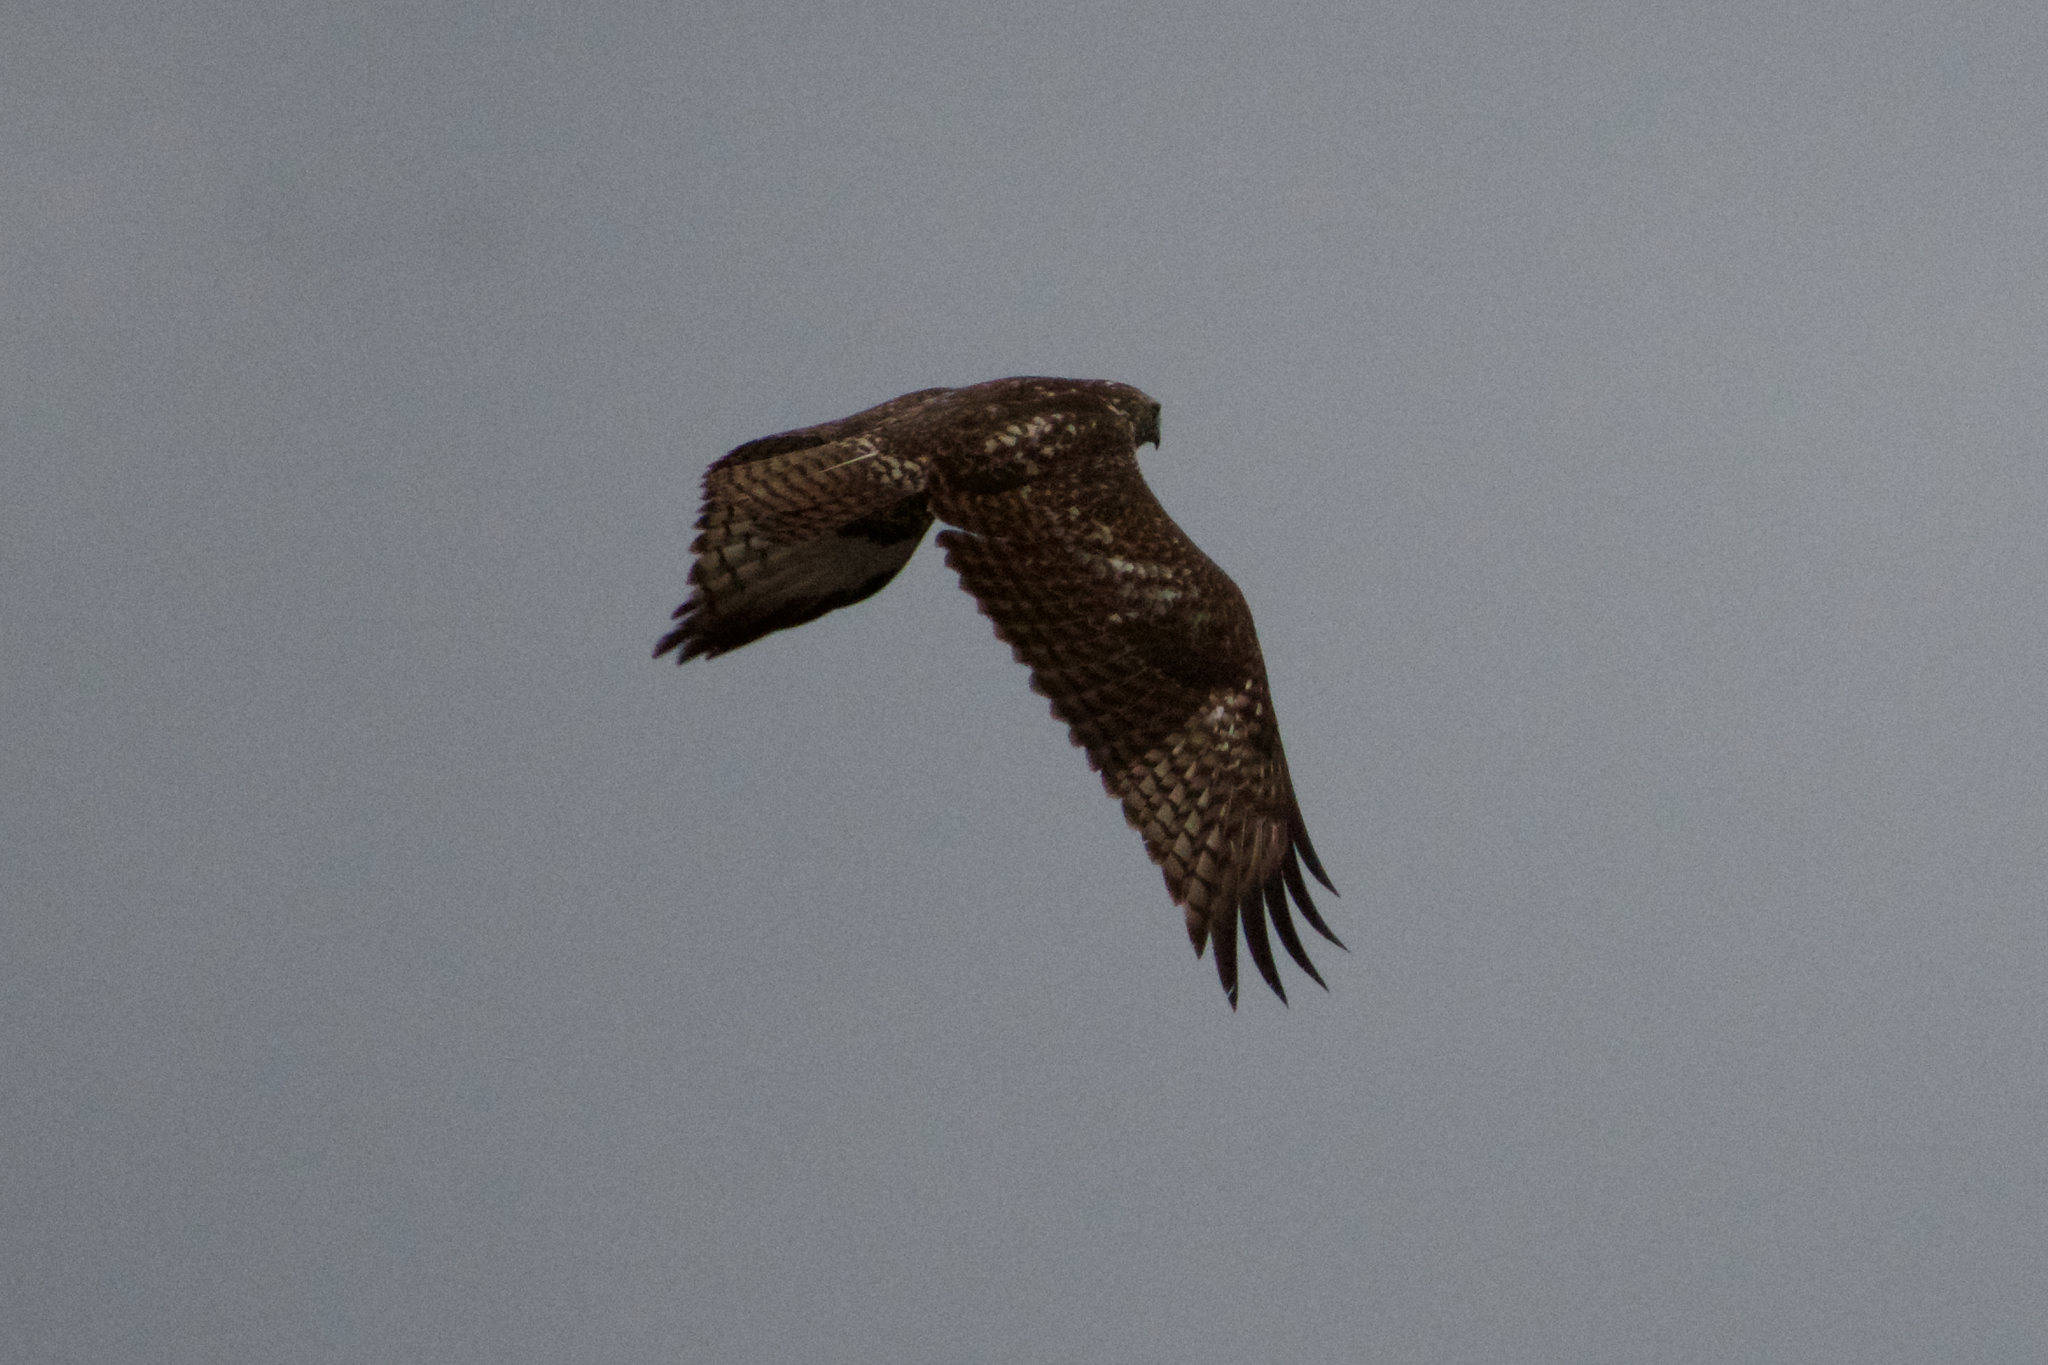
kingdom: Animalia
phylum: Chordata
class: Aves
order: Accipitriformes
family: Accipitridae
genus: Buteo
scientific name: Buteo jamaicensis
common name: Red-tailed hawk
